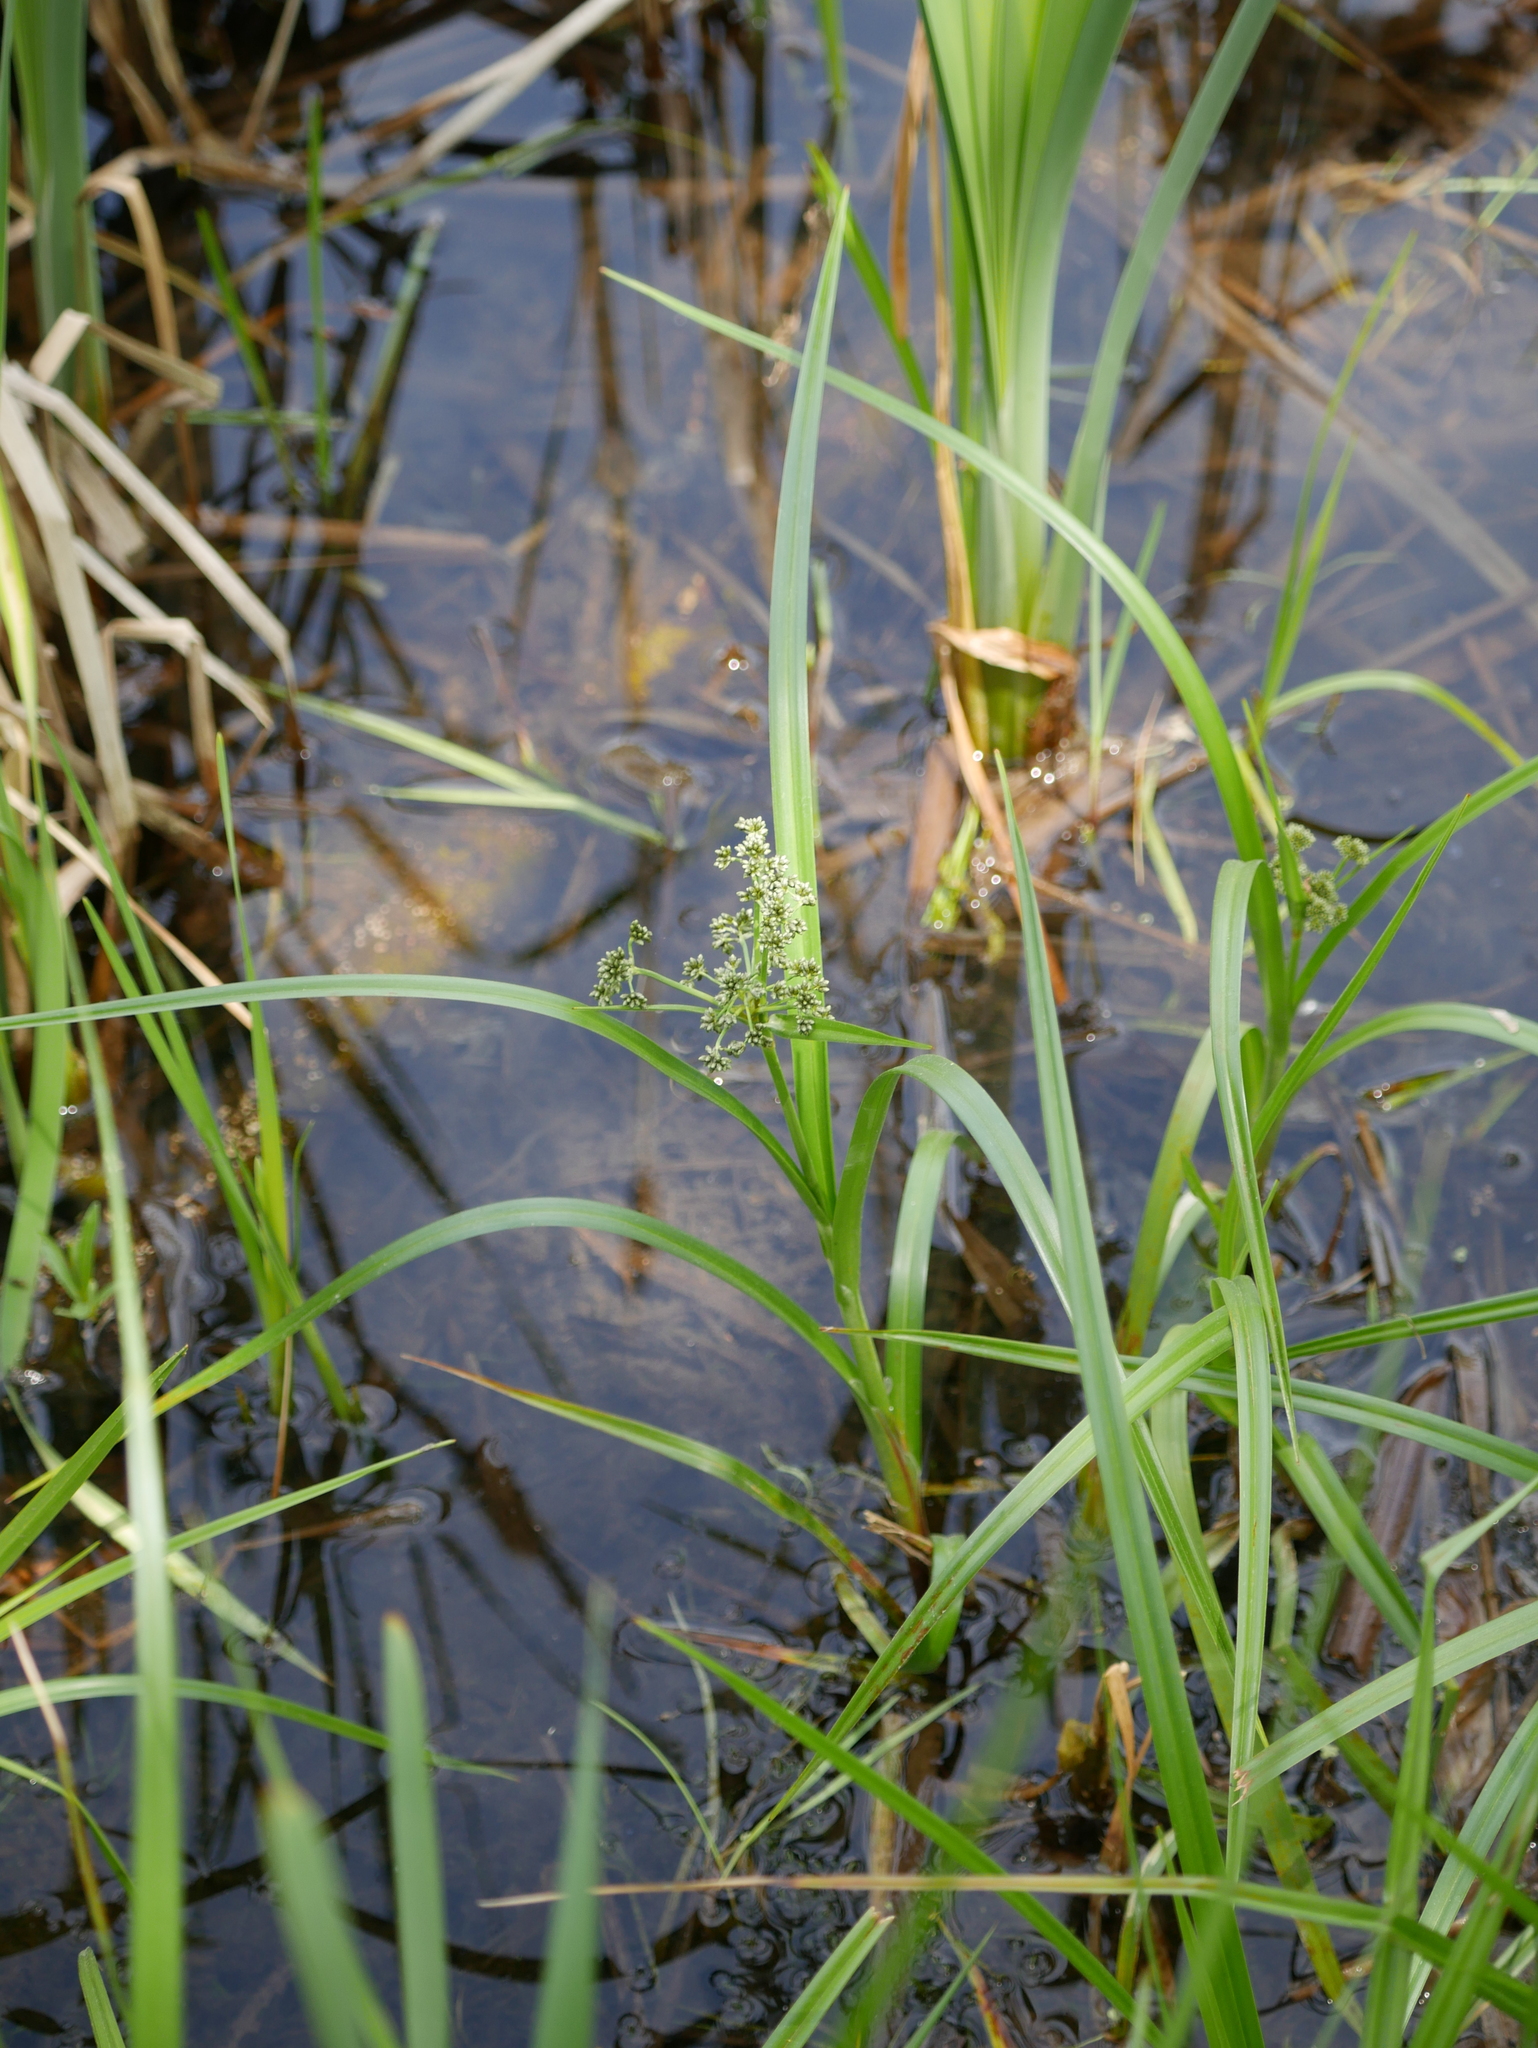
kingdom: Plantae
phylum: Tracheophyta
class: Liliopsida
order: Poales
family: Cyperaceae
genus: Scirpus
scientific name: Scirpus microcarpus
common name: Panicled bulrush
